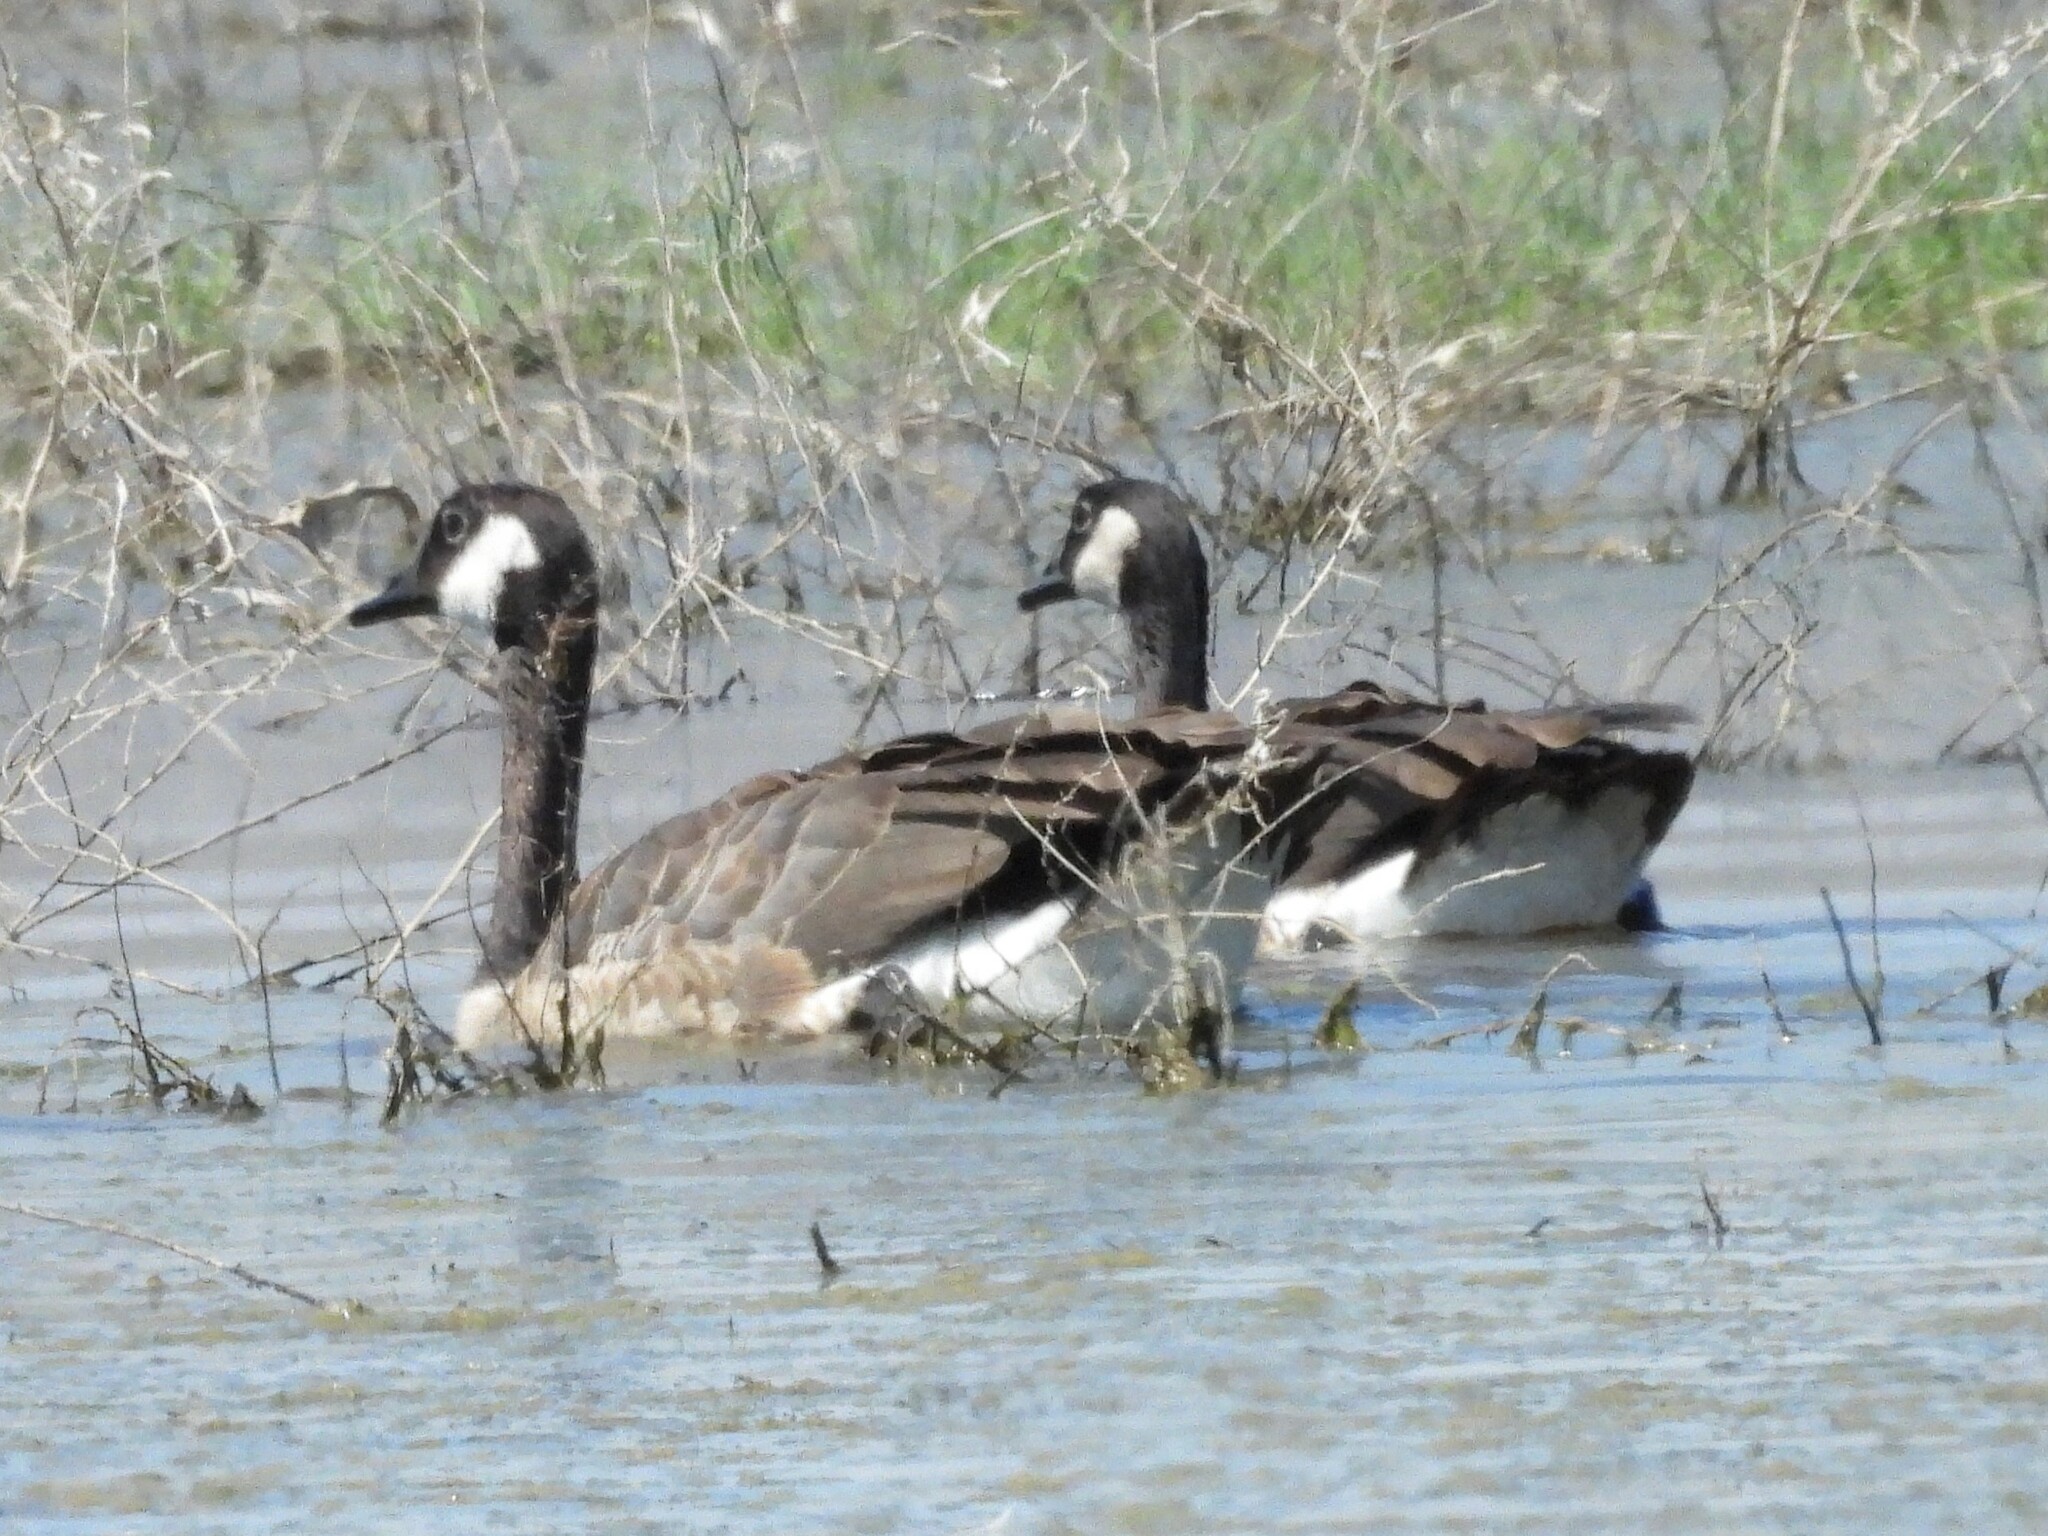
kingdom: Animalia
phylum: Chordata
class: Aves
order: Anseriformes
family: Anatidae
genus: Branta
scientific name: Branta canadensis
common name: Canada goose
